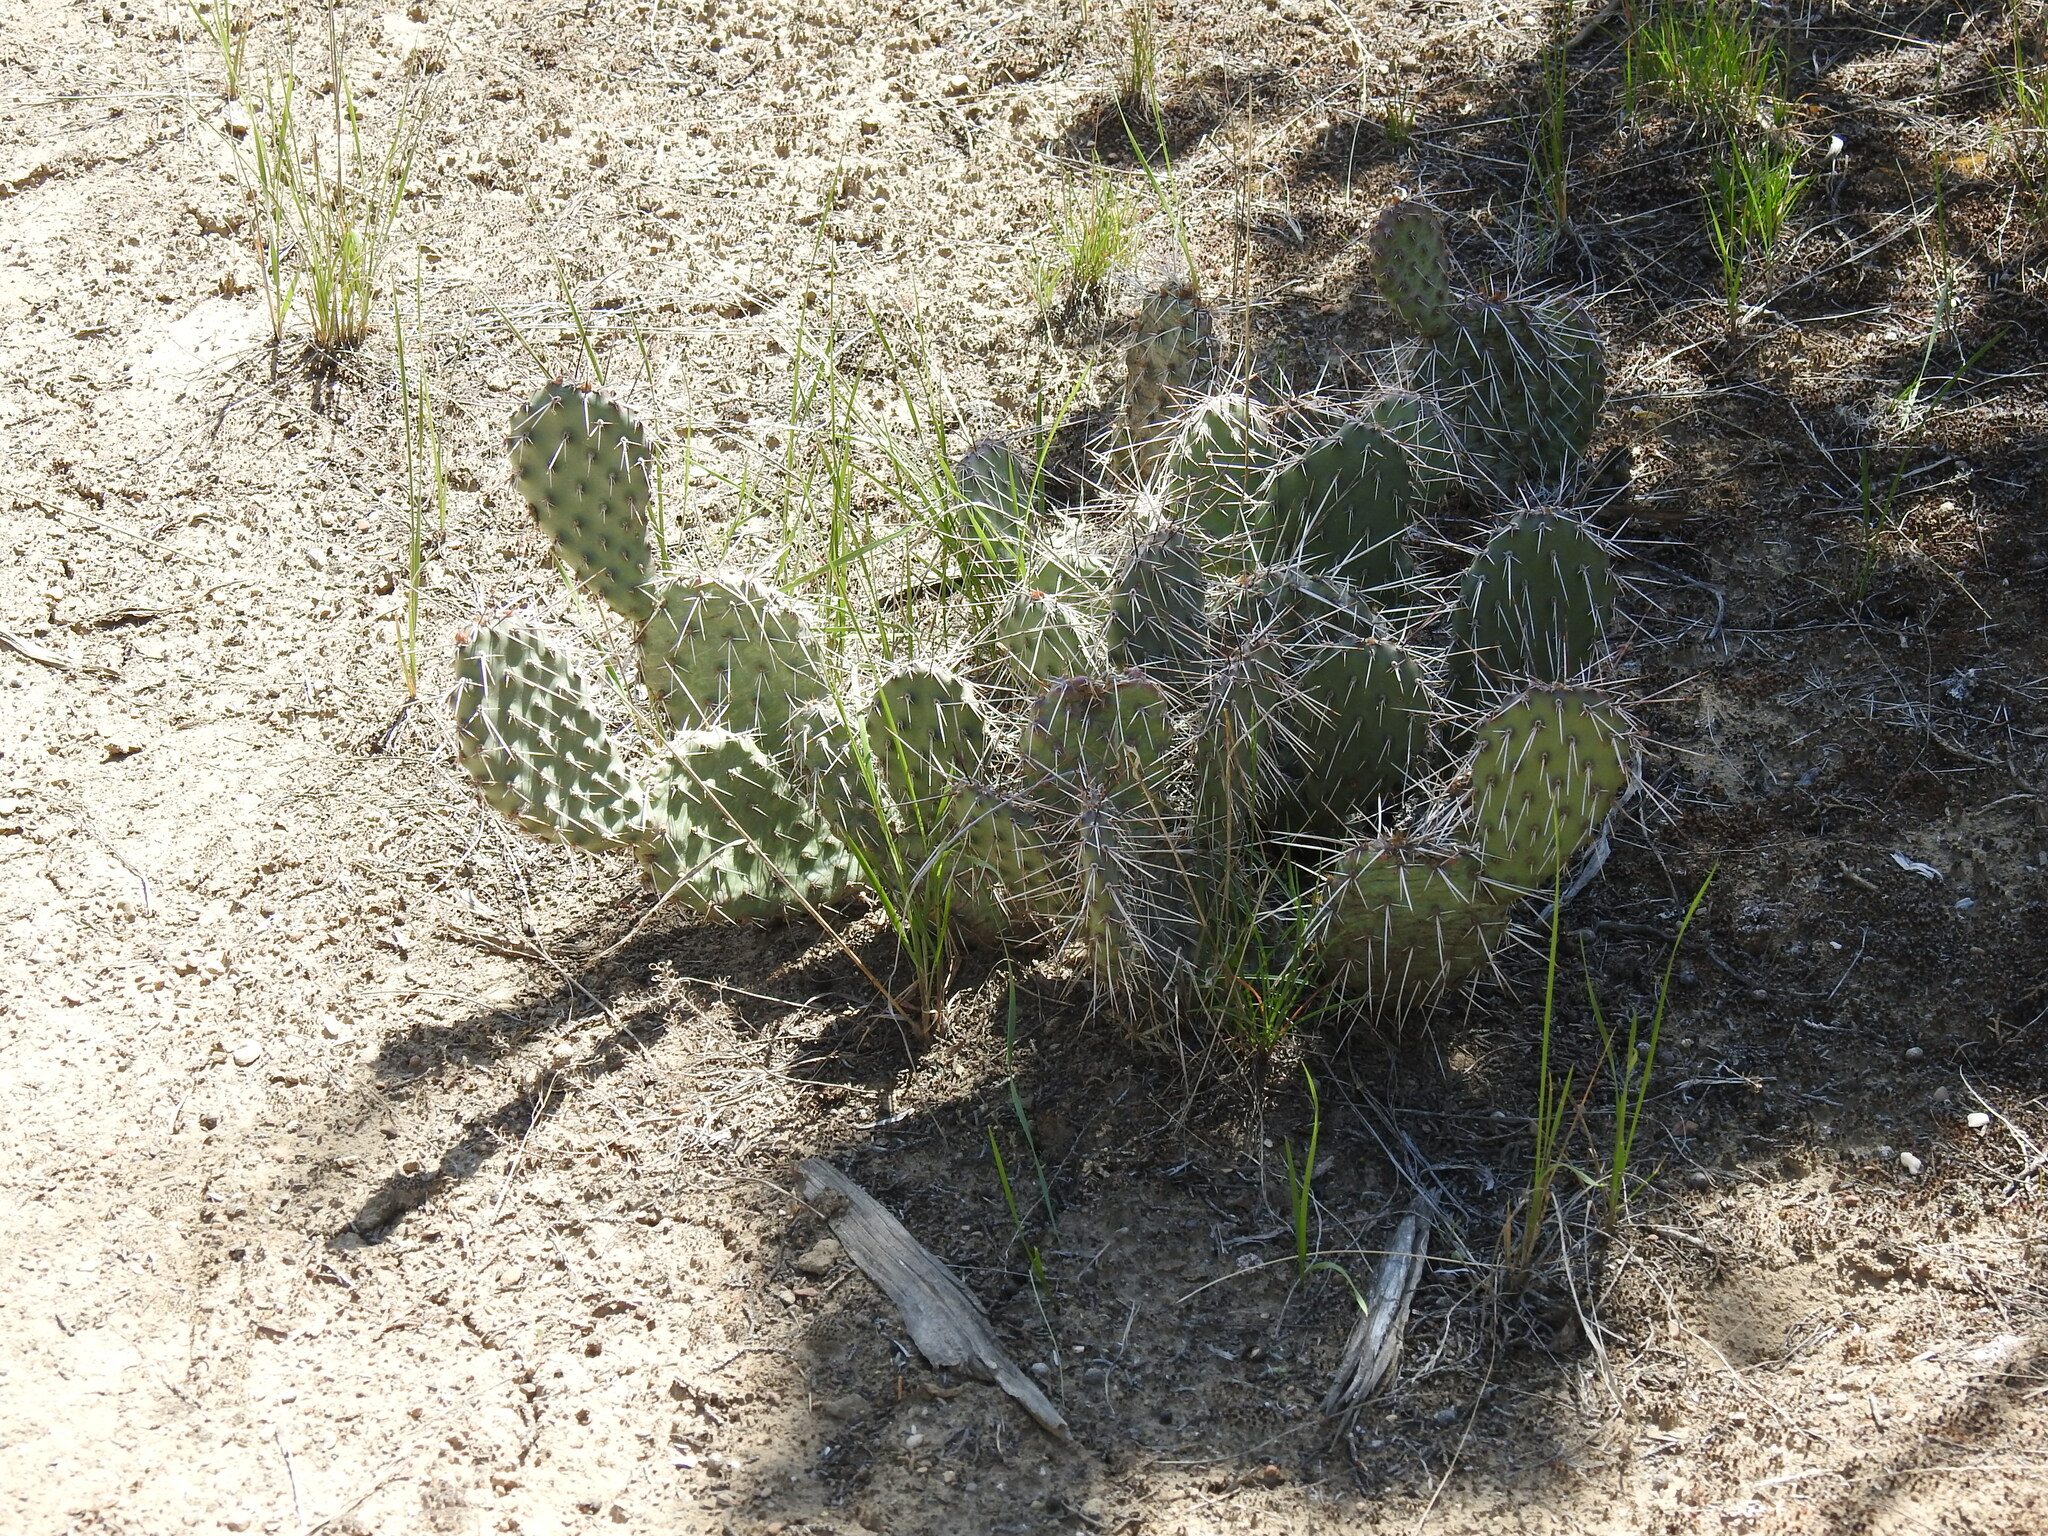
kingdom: Plantae
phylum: Tracheophyta
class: Magnoliopsida
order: Caryophyllales
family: Cactaceae
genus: Opuntia
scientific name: Opuntia polyacantha
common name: Plains prickly-pear
